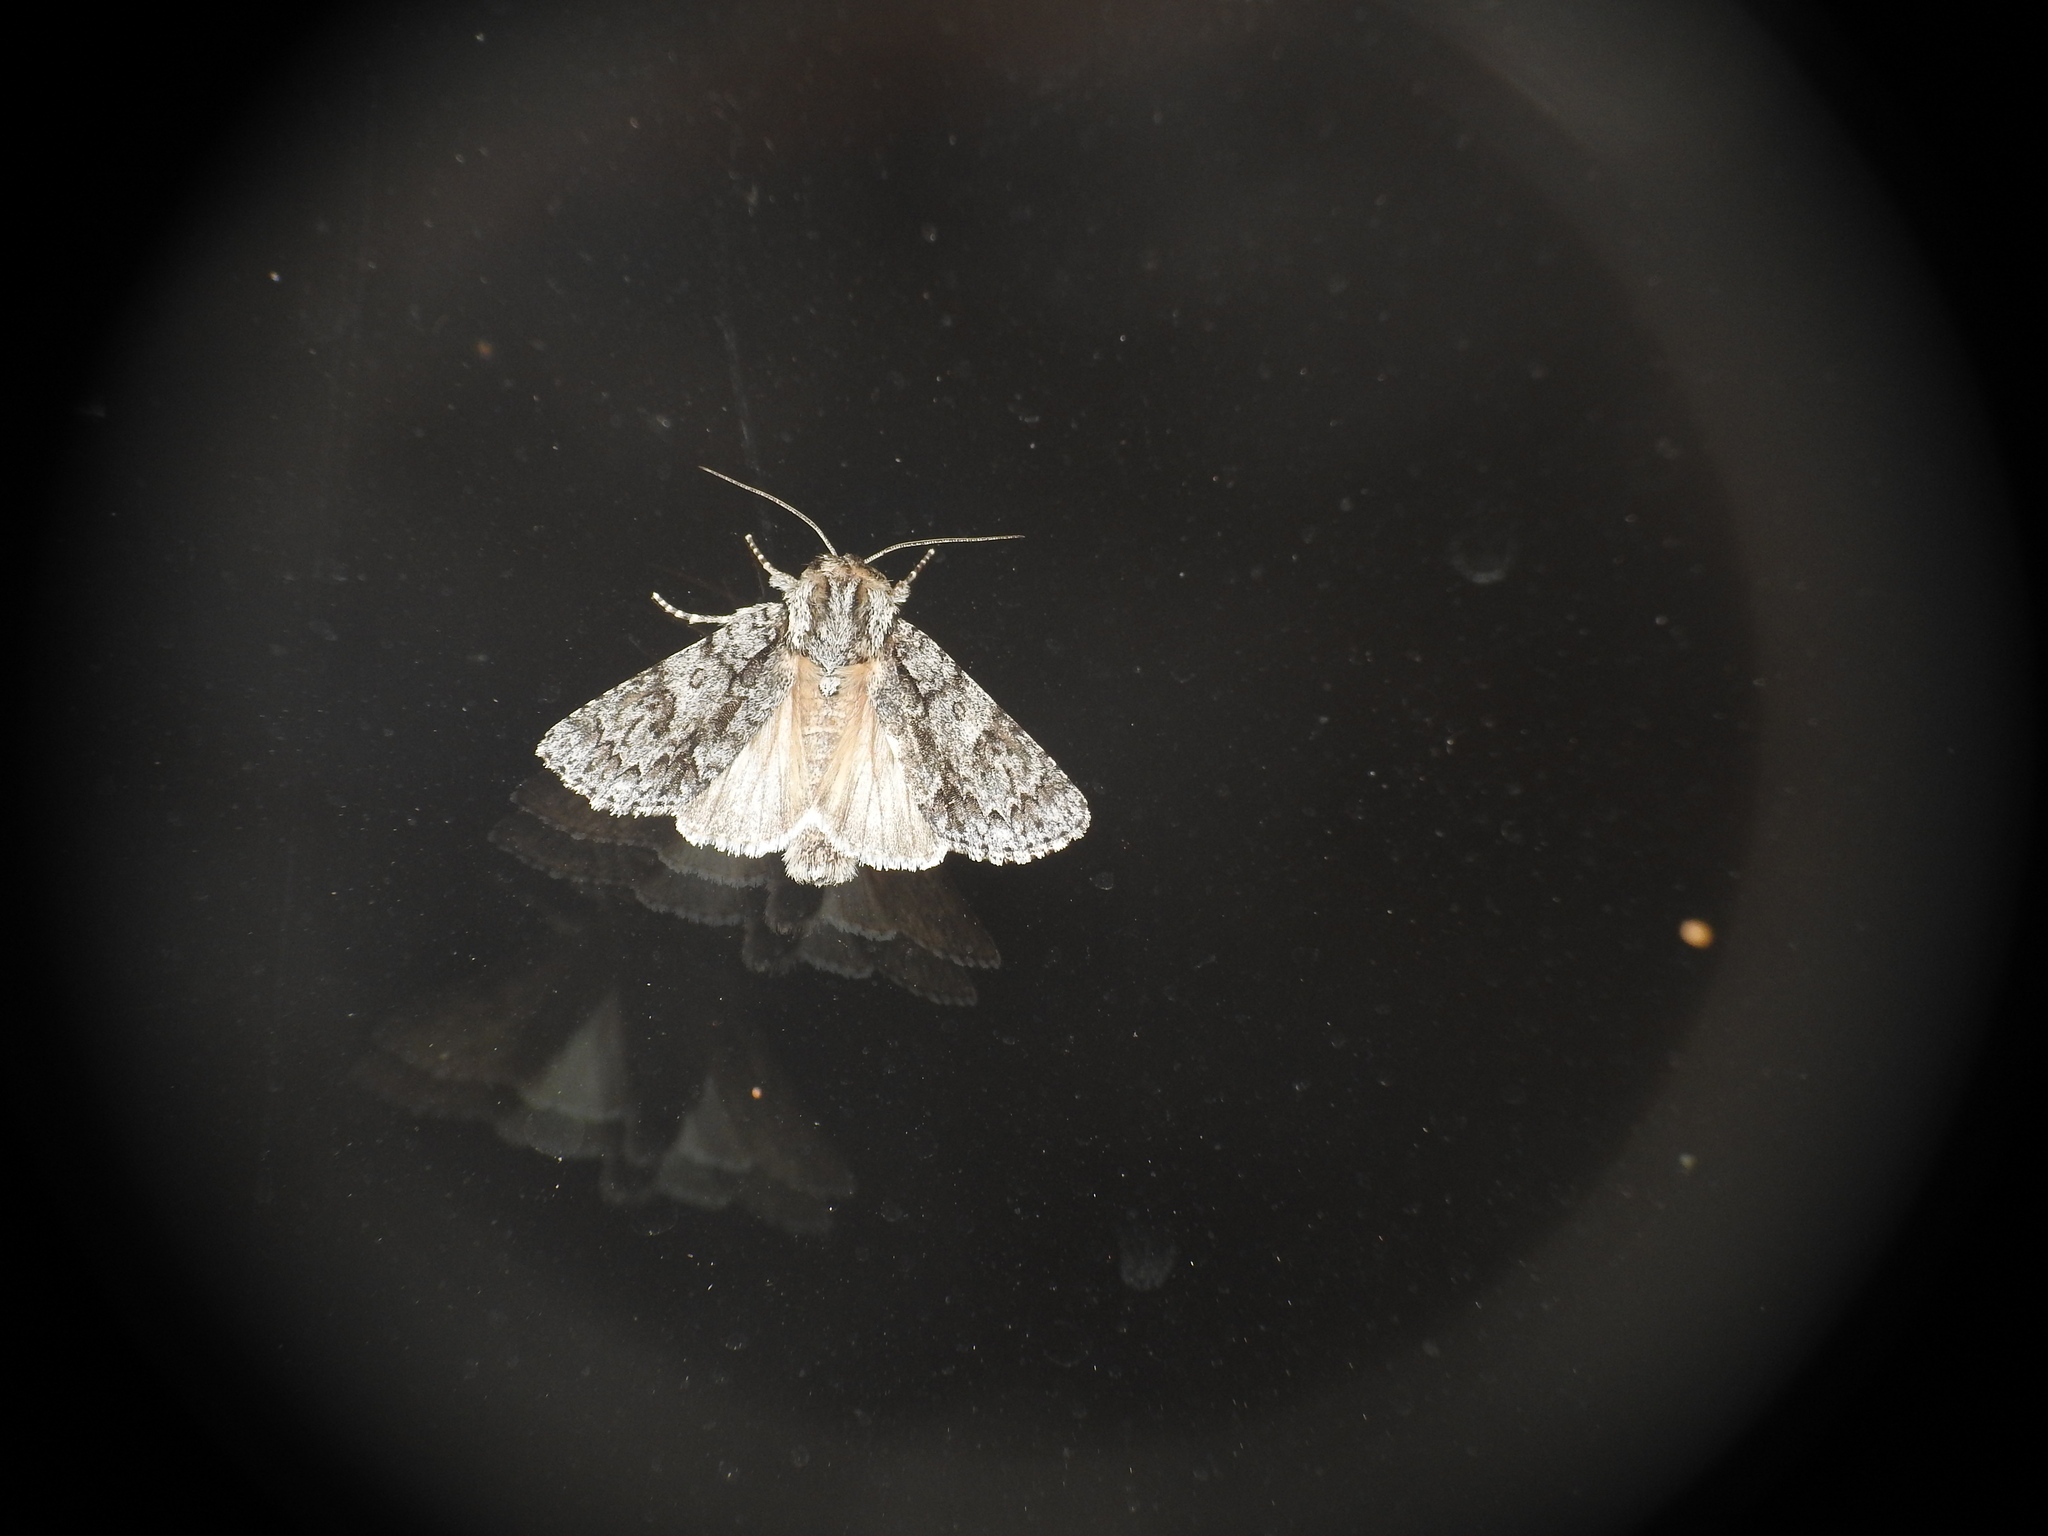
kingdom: Animalia
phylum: Arthropoda
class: Insecta
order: Lepidoptera
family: Noctuidae
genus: Acronicta
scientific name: Acronicta aceris
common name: Sycamore
